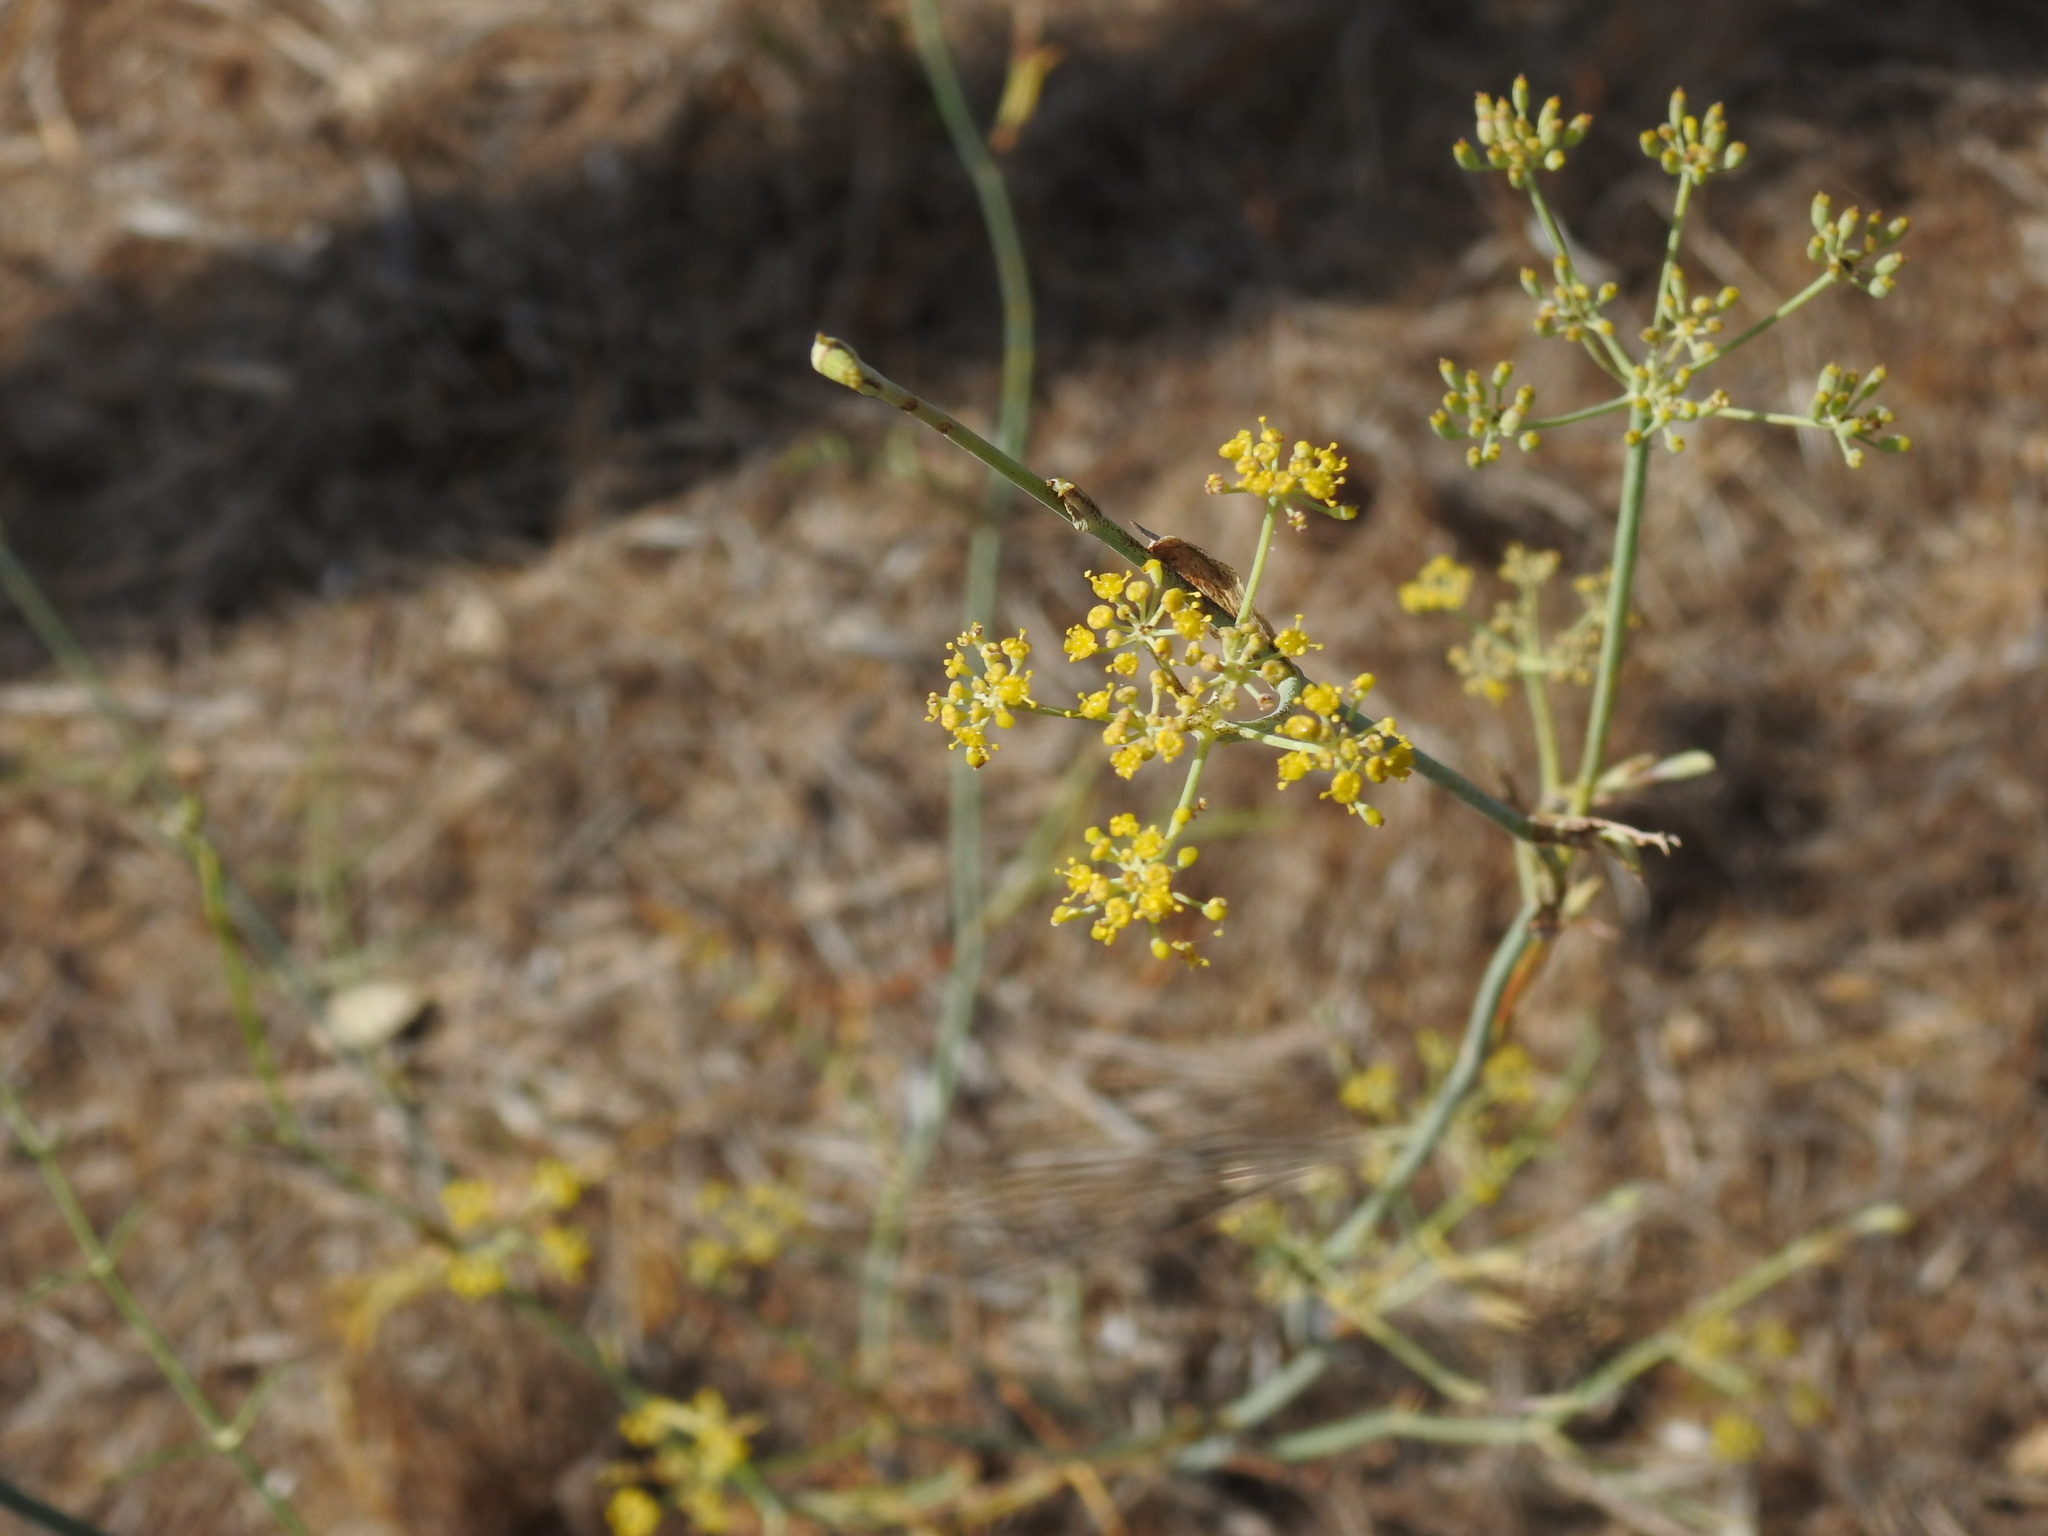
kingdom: Plantae
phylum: Tracheophyta
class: Magnoliopsida
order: Apiales
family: Apiaceae
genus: Foeniculum
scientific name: Foeniculum vulgare
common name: Fennel
